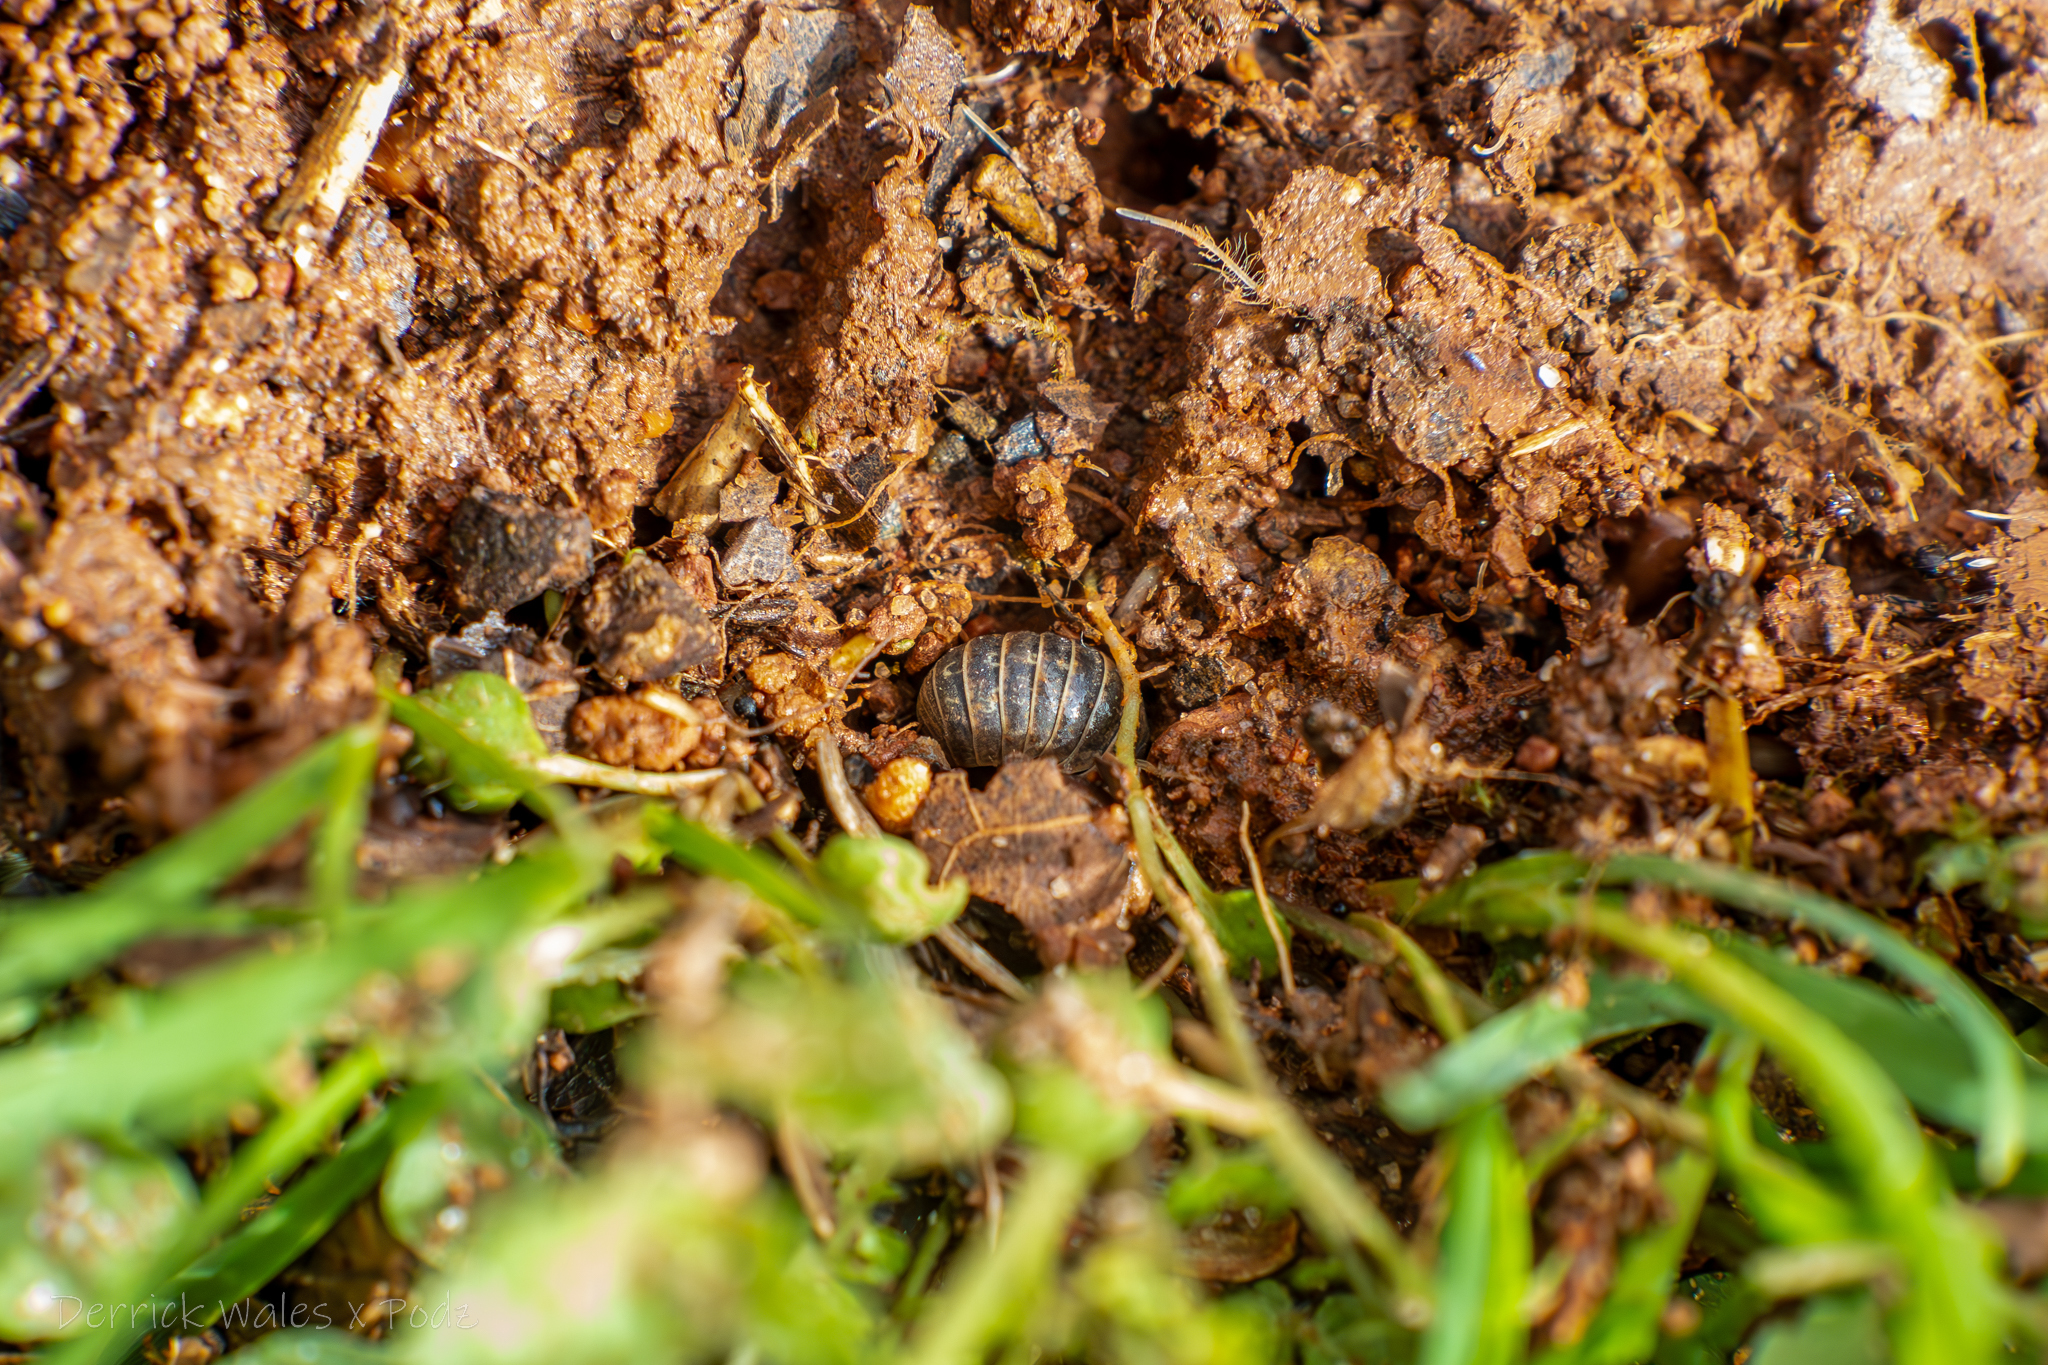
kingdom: Animalia
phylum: Arthropoda
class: Malacostraca
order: Isopoda
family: Armadillidiidae
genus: Armadillidium
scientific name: Armadillidium vulgare
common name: Common pill woodlouse
